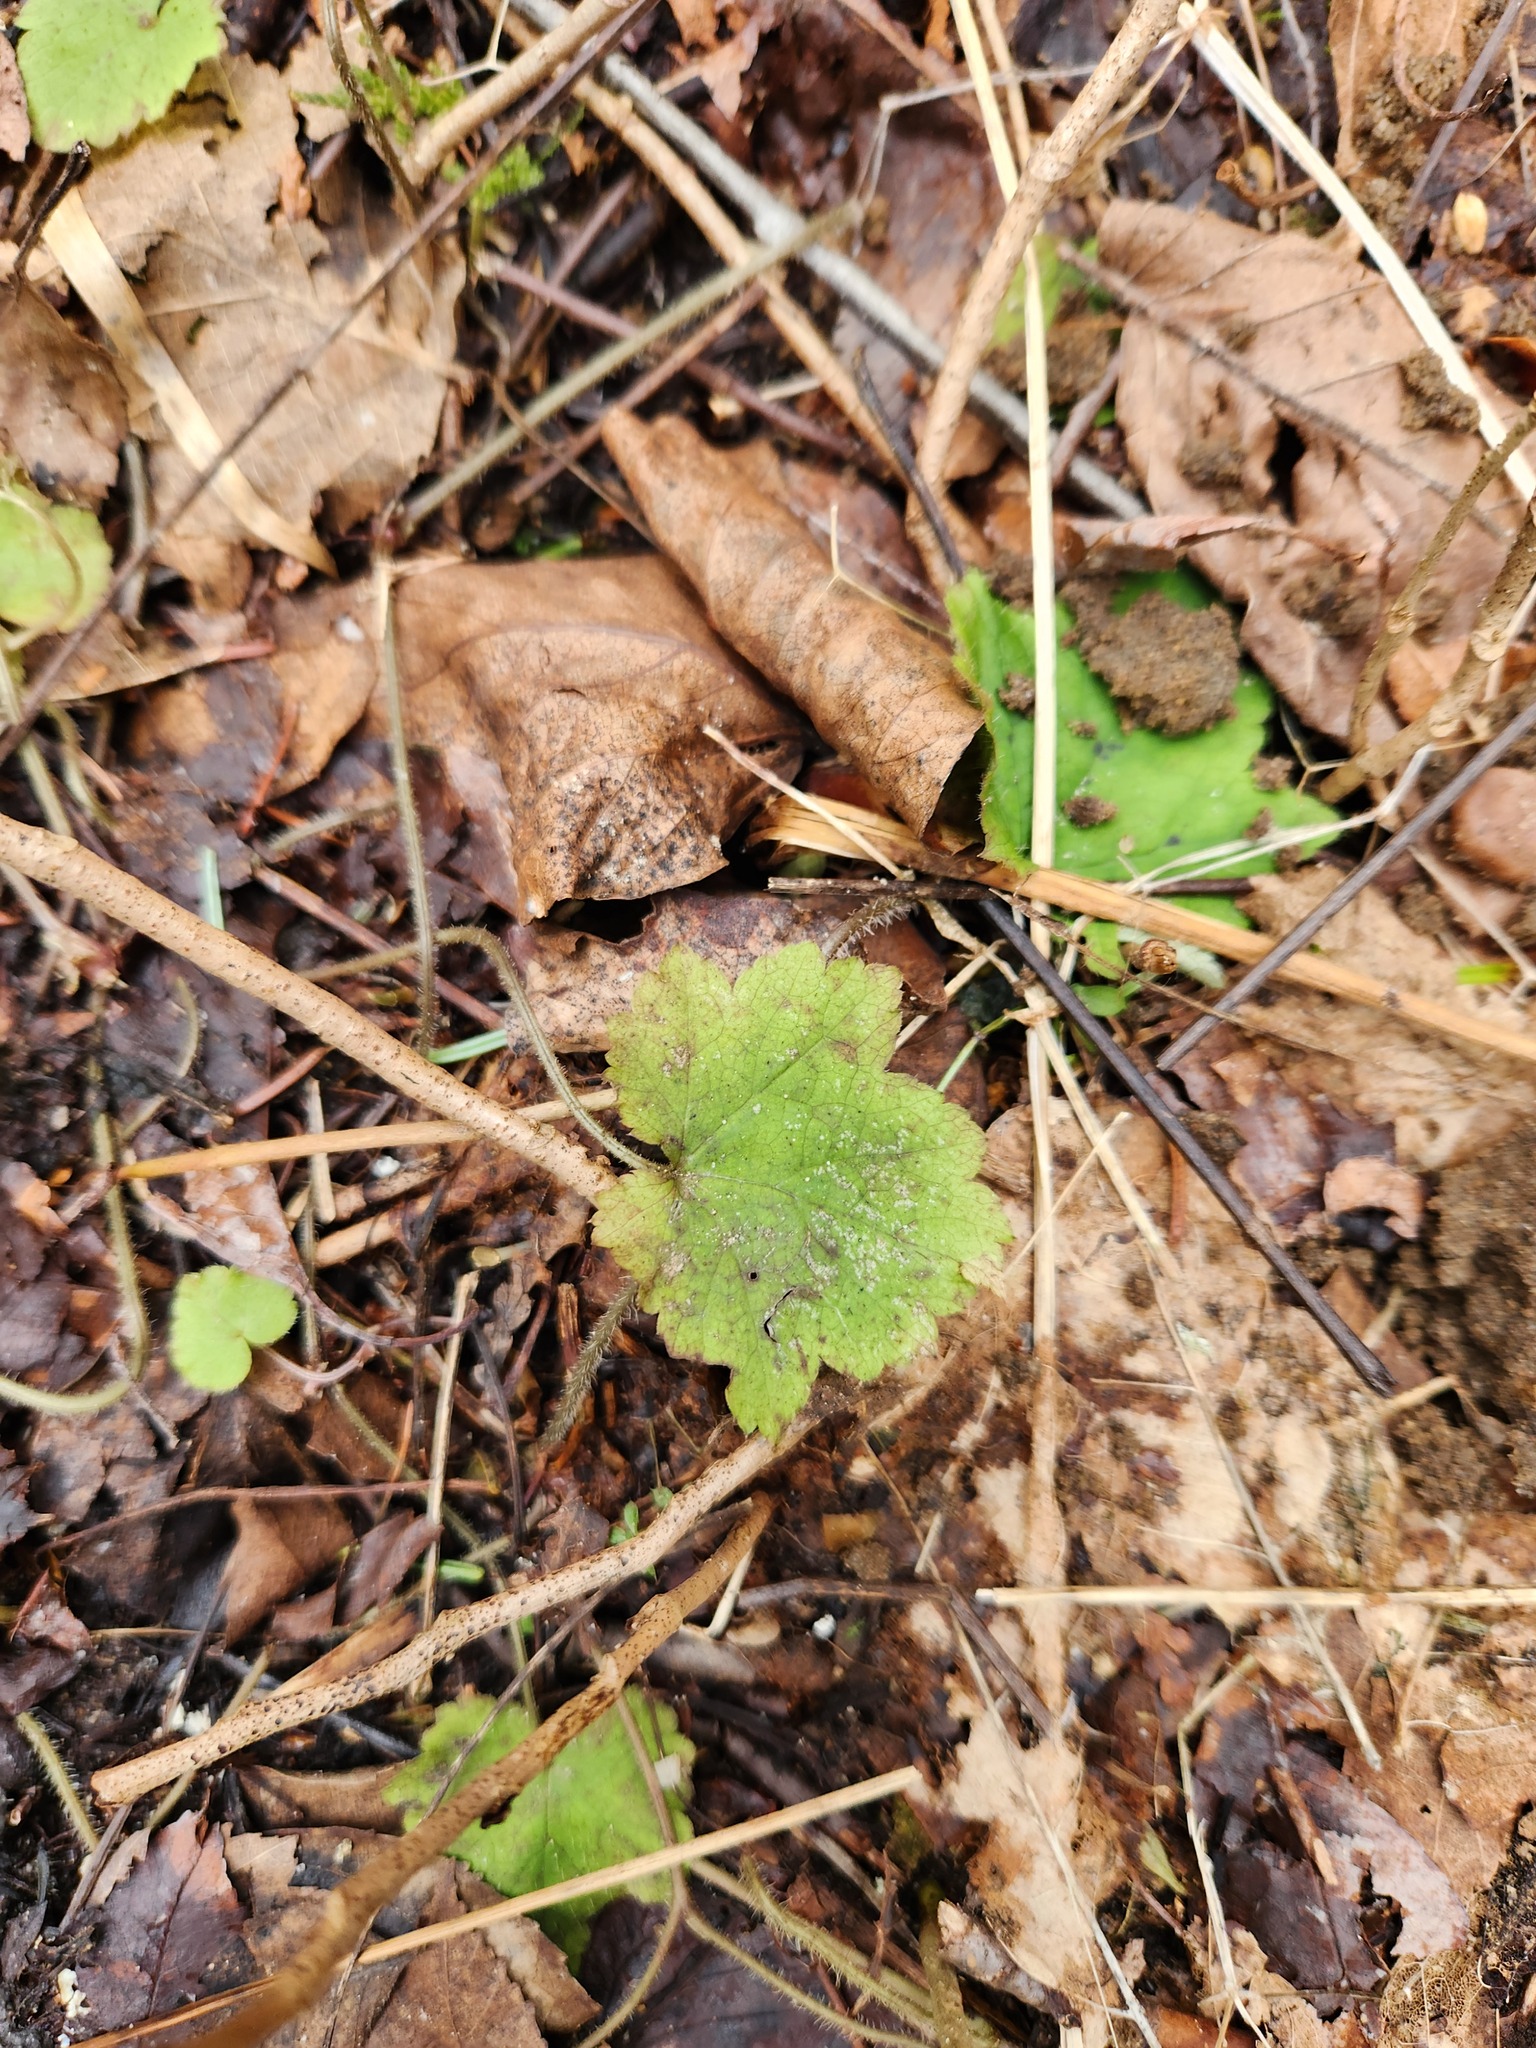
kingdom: Plantae
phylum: Tracheophyta
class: Magnoliopsida
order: Saxifragales
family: Saxifragaceae
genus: Tiarella
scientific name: Tiarella stolonifera
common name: Stoloniferous foamflower
